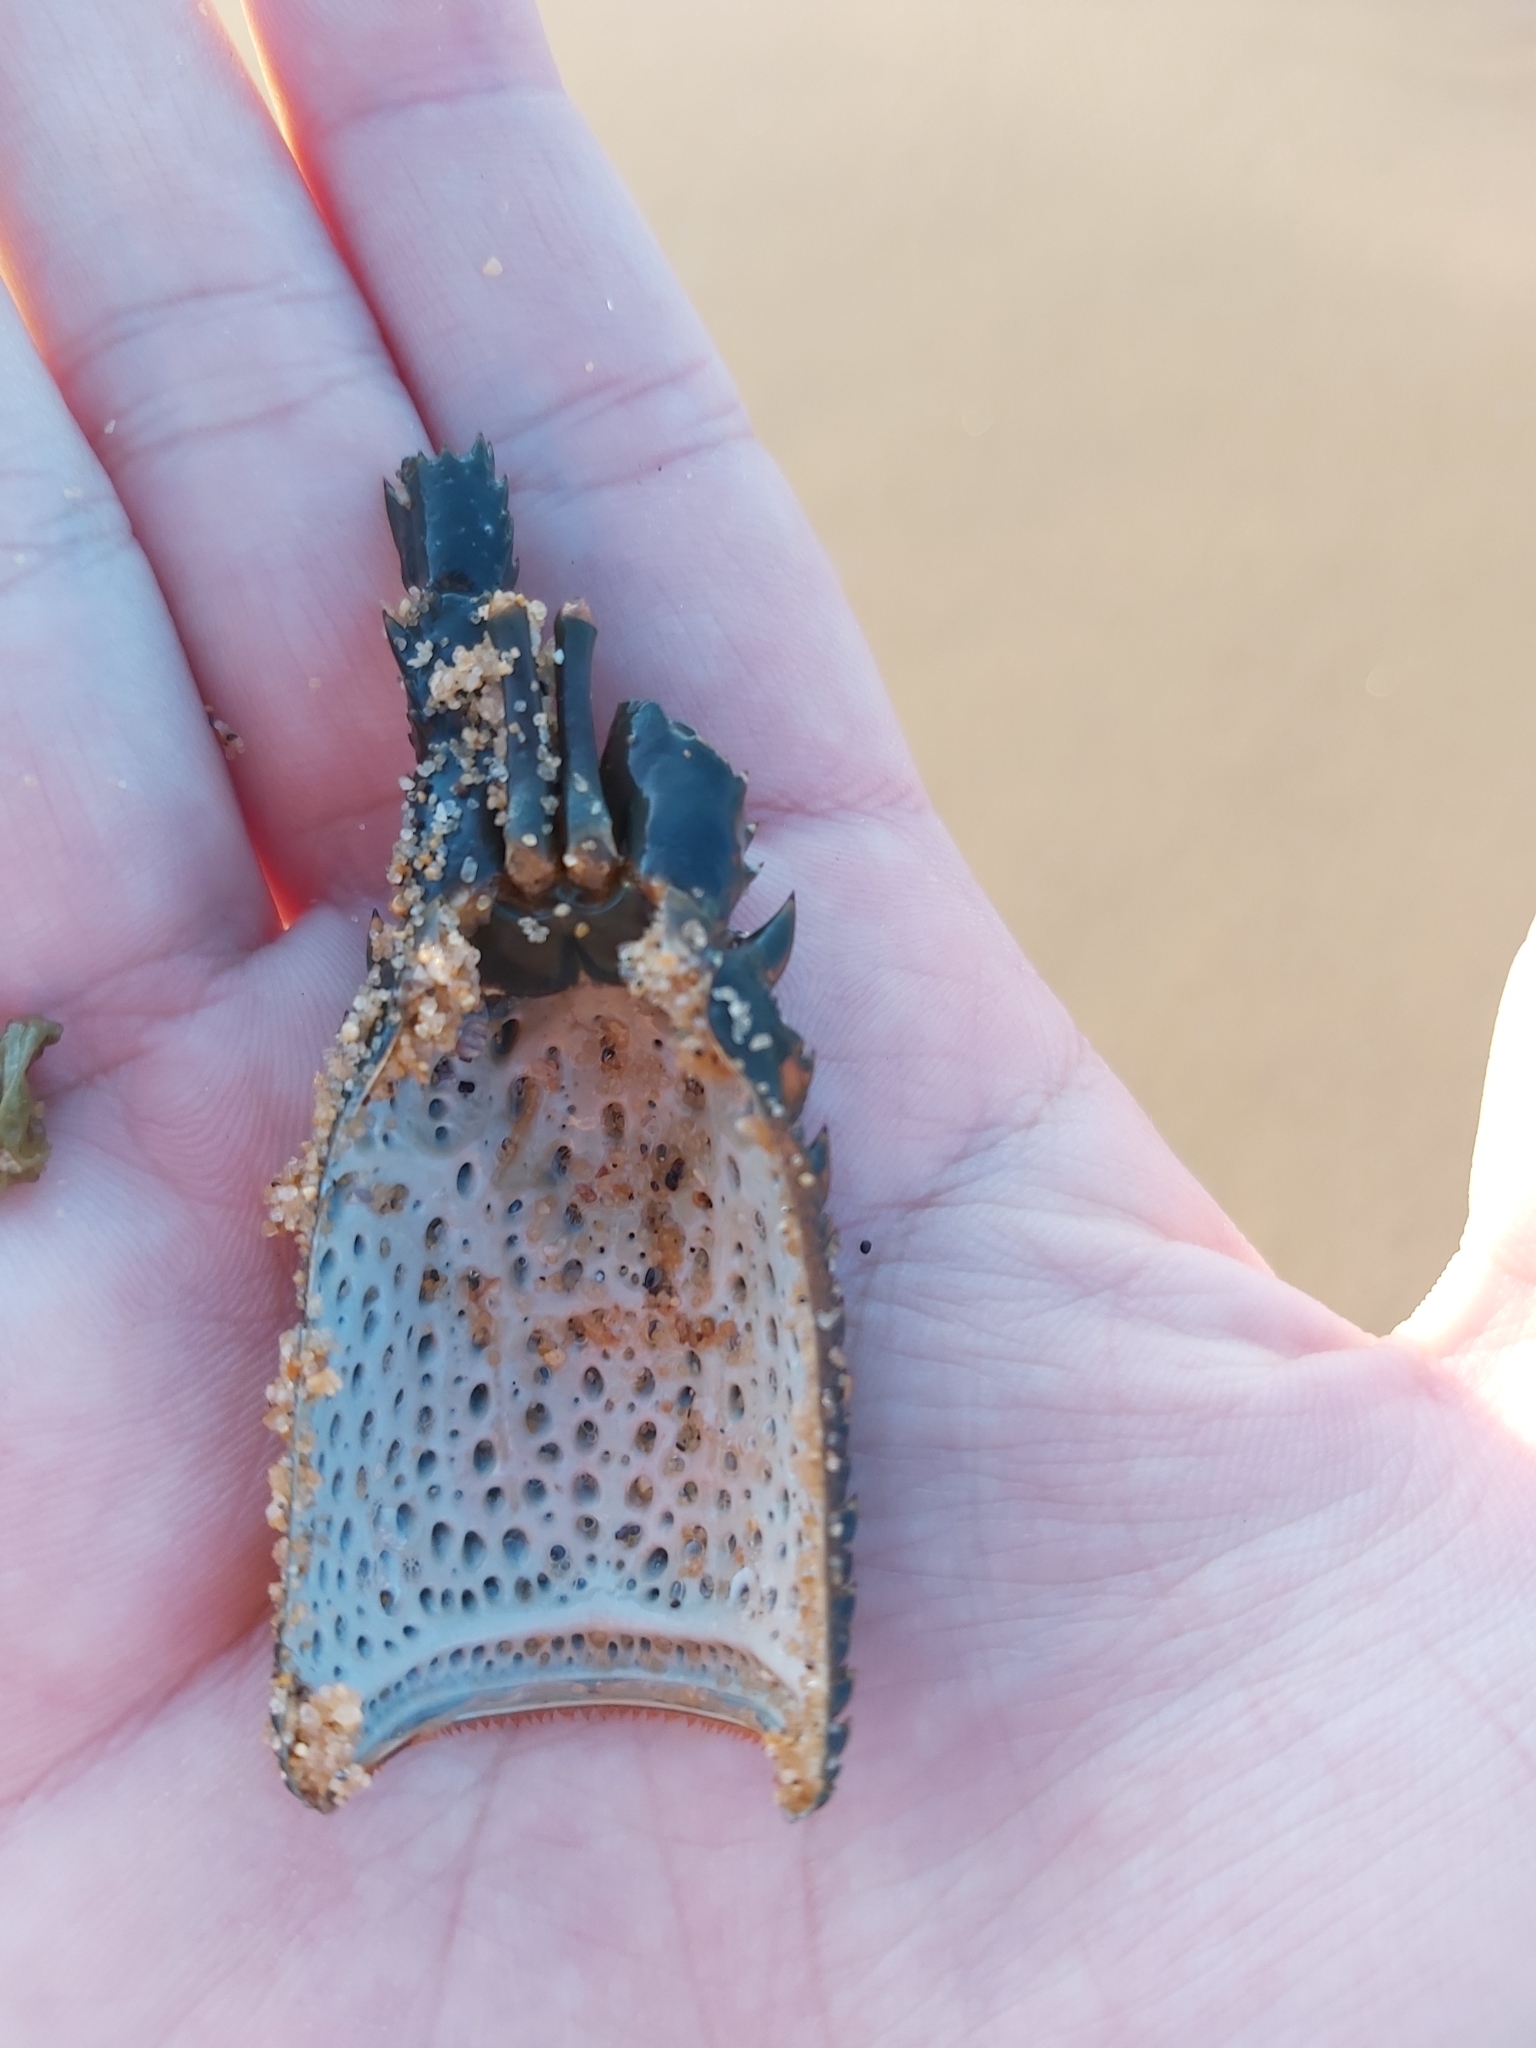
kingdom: Animalia
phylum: Arthropoda
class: Malacostraca
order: Decapoda
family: Palinuridae
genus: Sagmariasus
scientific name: Sagmariasus verreauxi
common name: Green rock lobster
